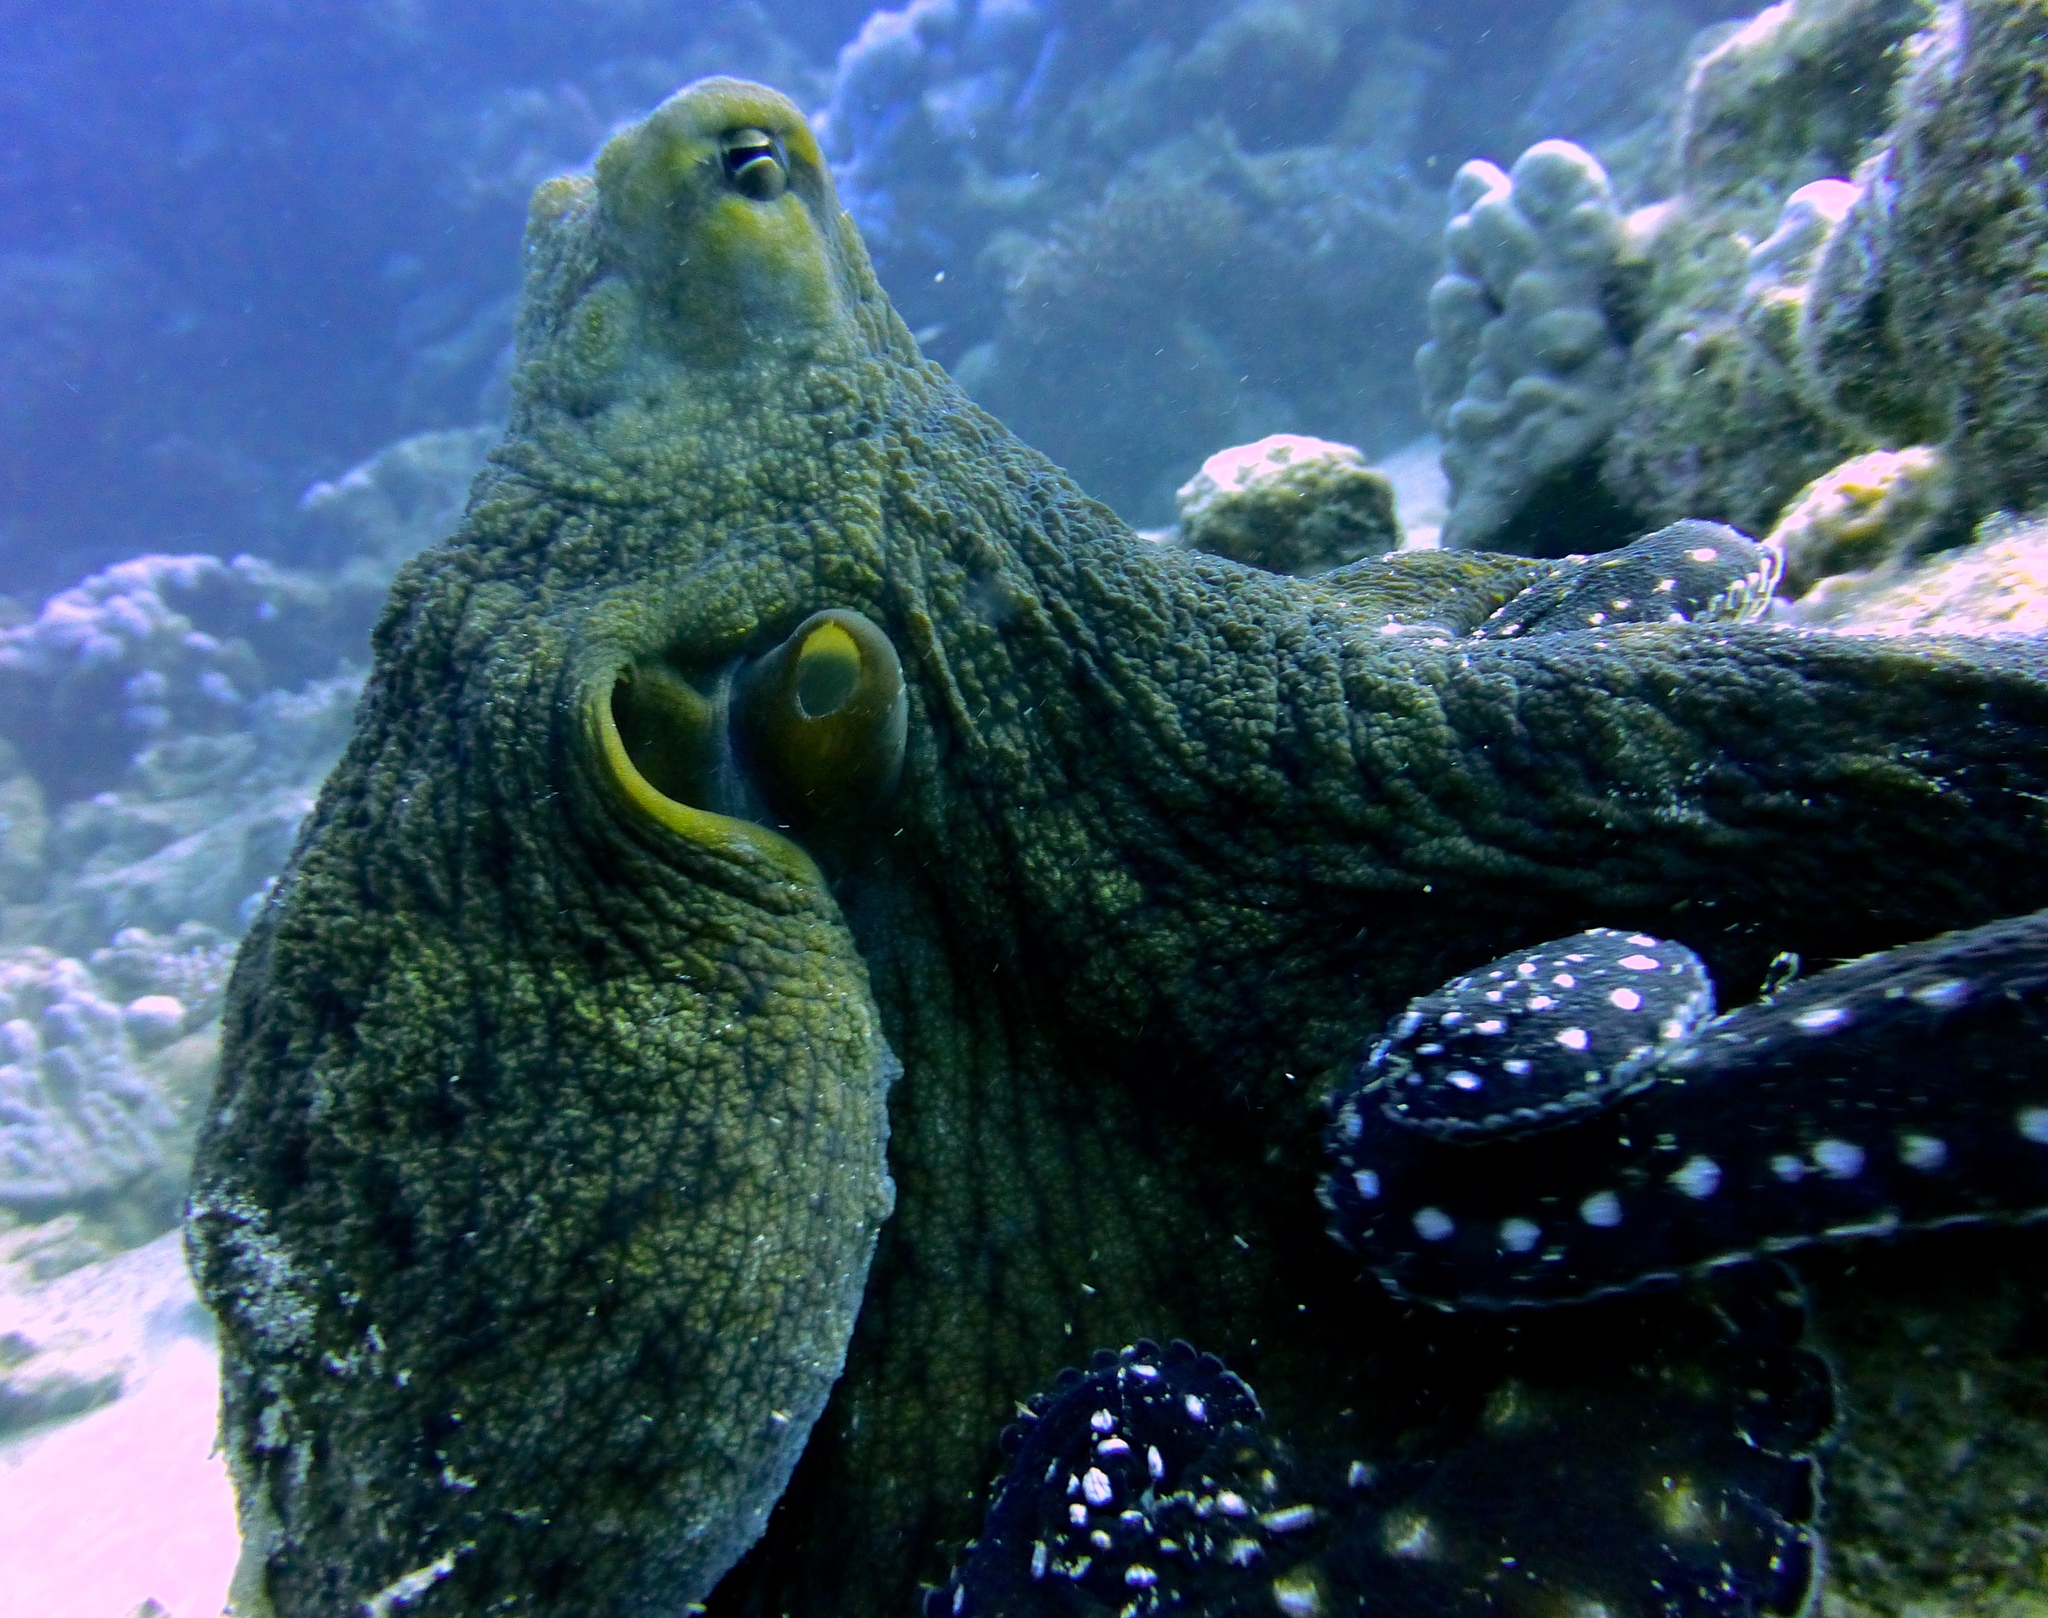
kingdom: Animalia
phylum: Mollusca
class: Cephalopoda
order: Octopoda
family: Octopodidae
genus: Octopus
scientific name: Octopus cyanea
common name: Cyane's octopus
